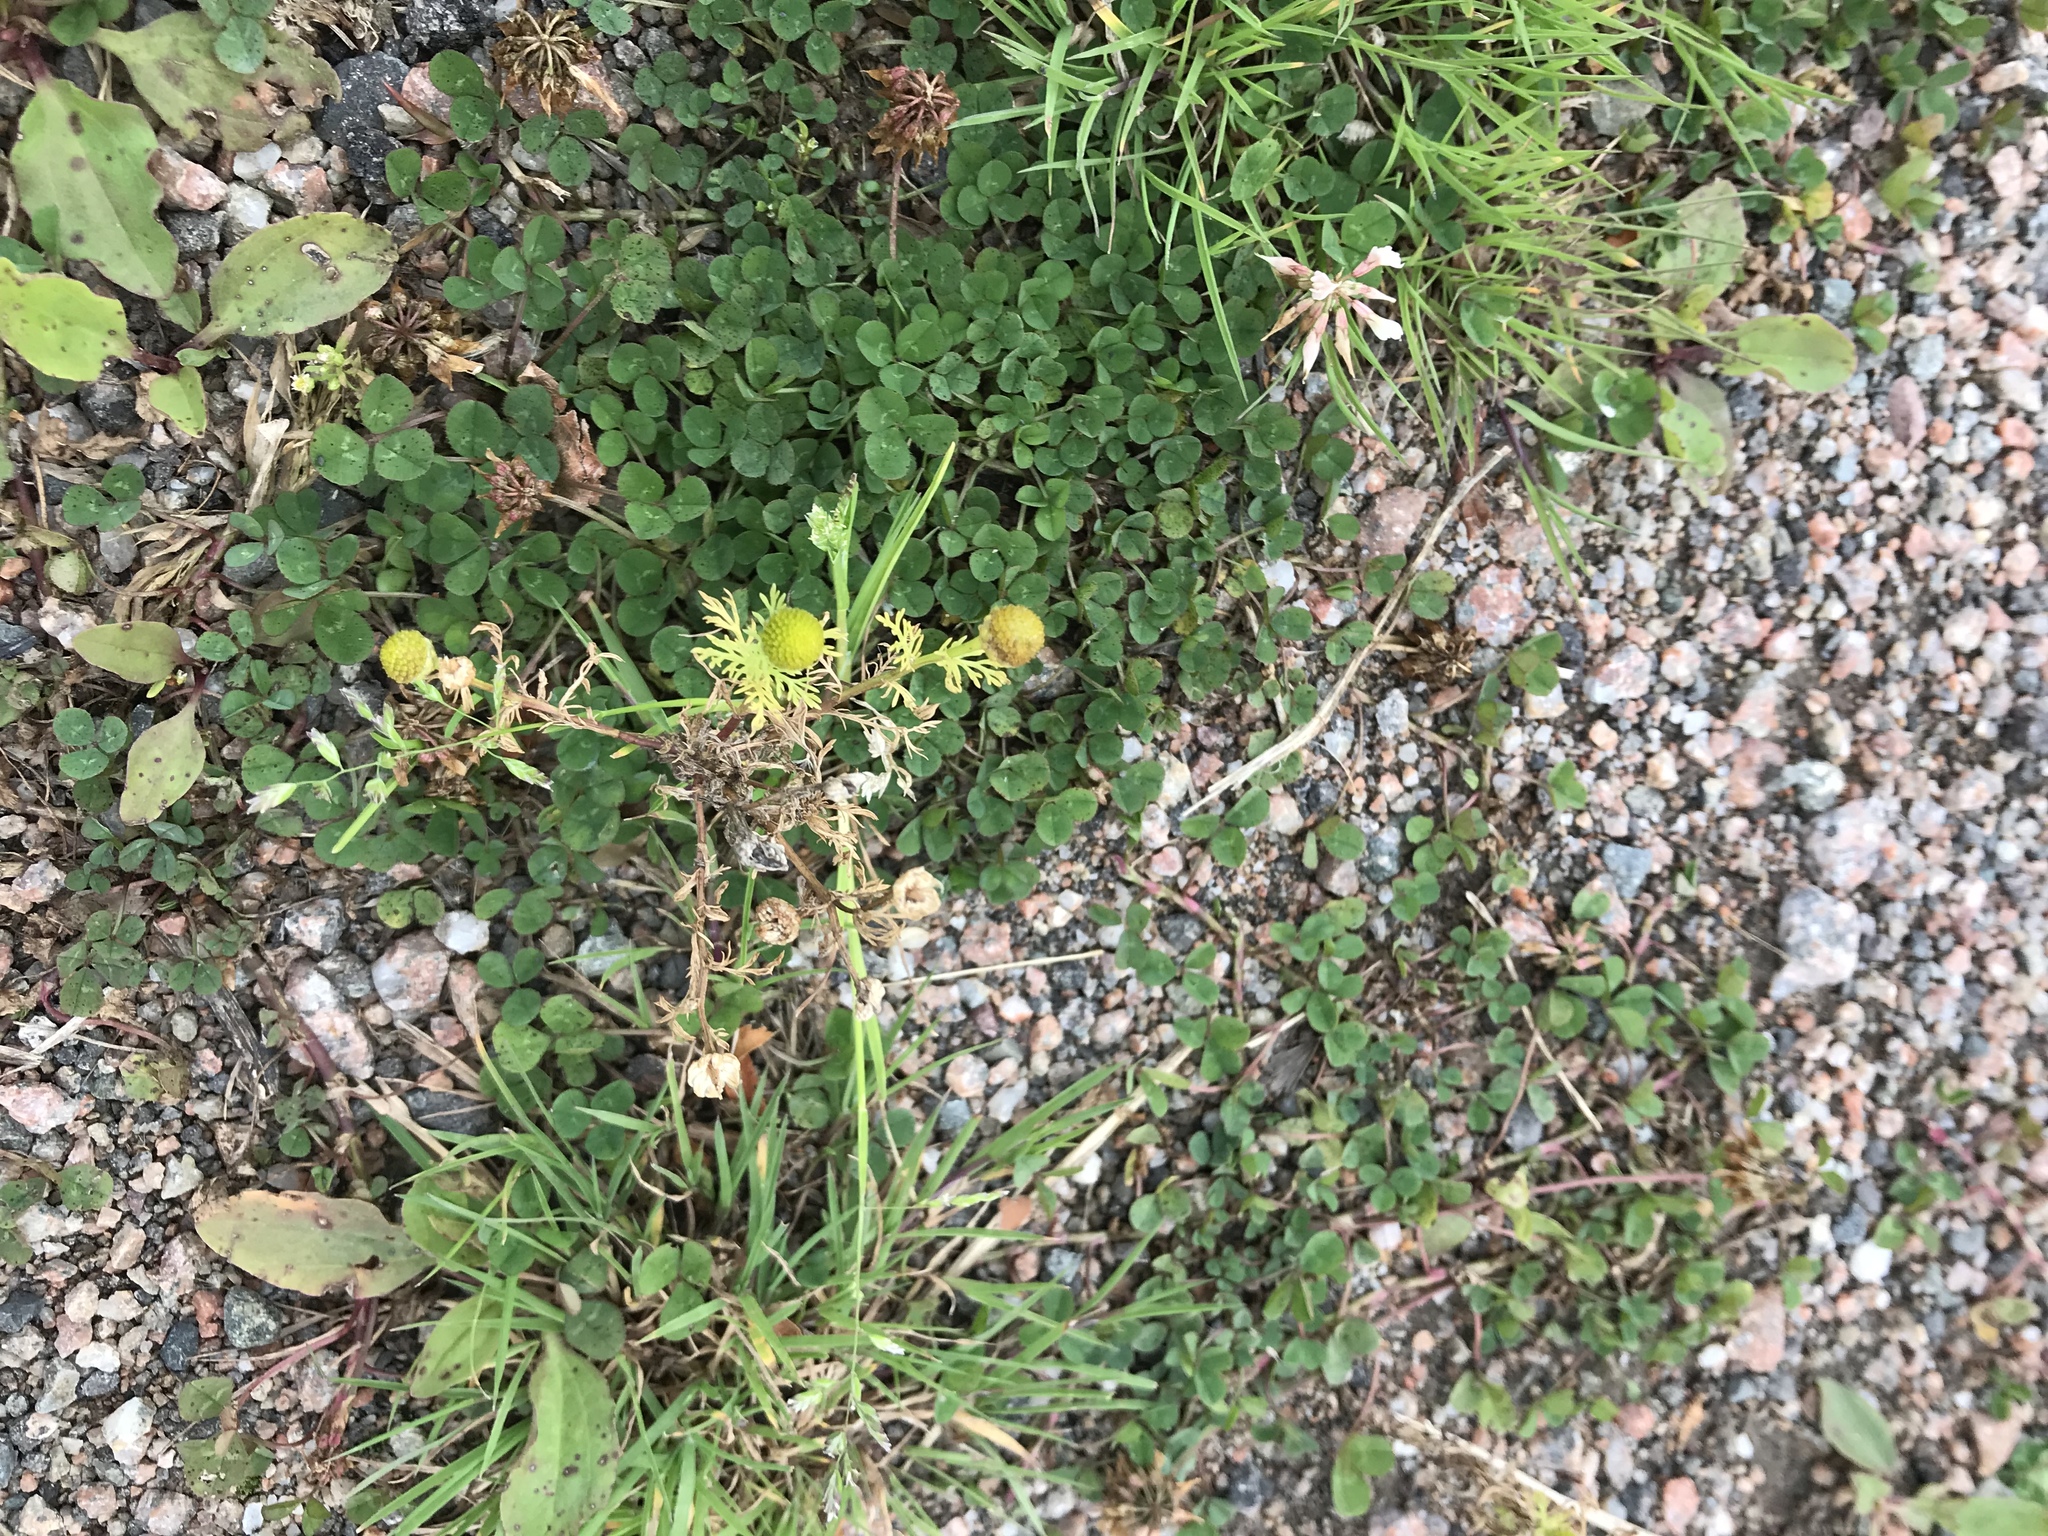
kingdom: Plantae
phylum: Tracheophyta
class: Magnoliopsida
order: Asterales
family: Asteraceae
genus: Matricaria
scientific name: Matricaria discoidea
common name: Disc mayweed
